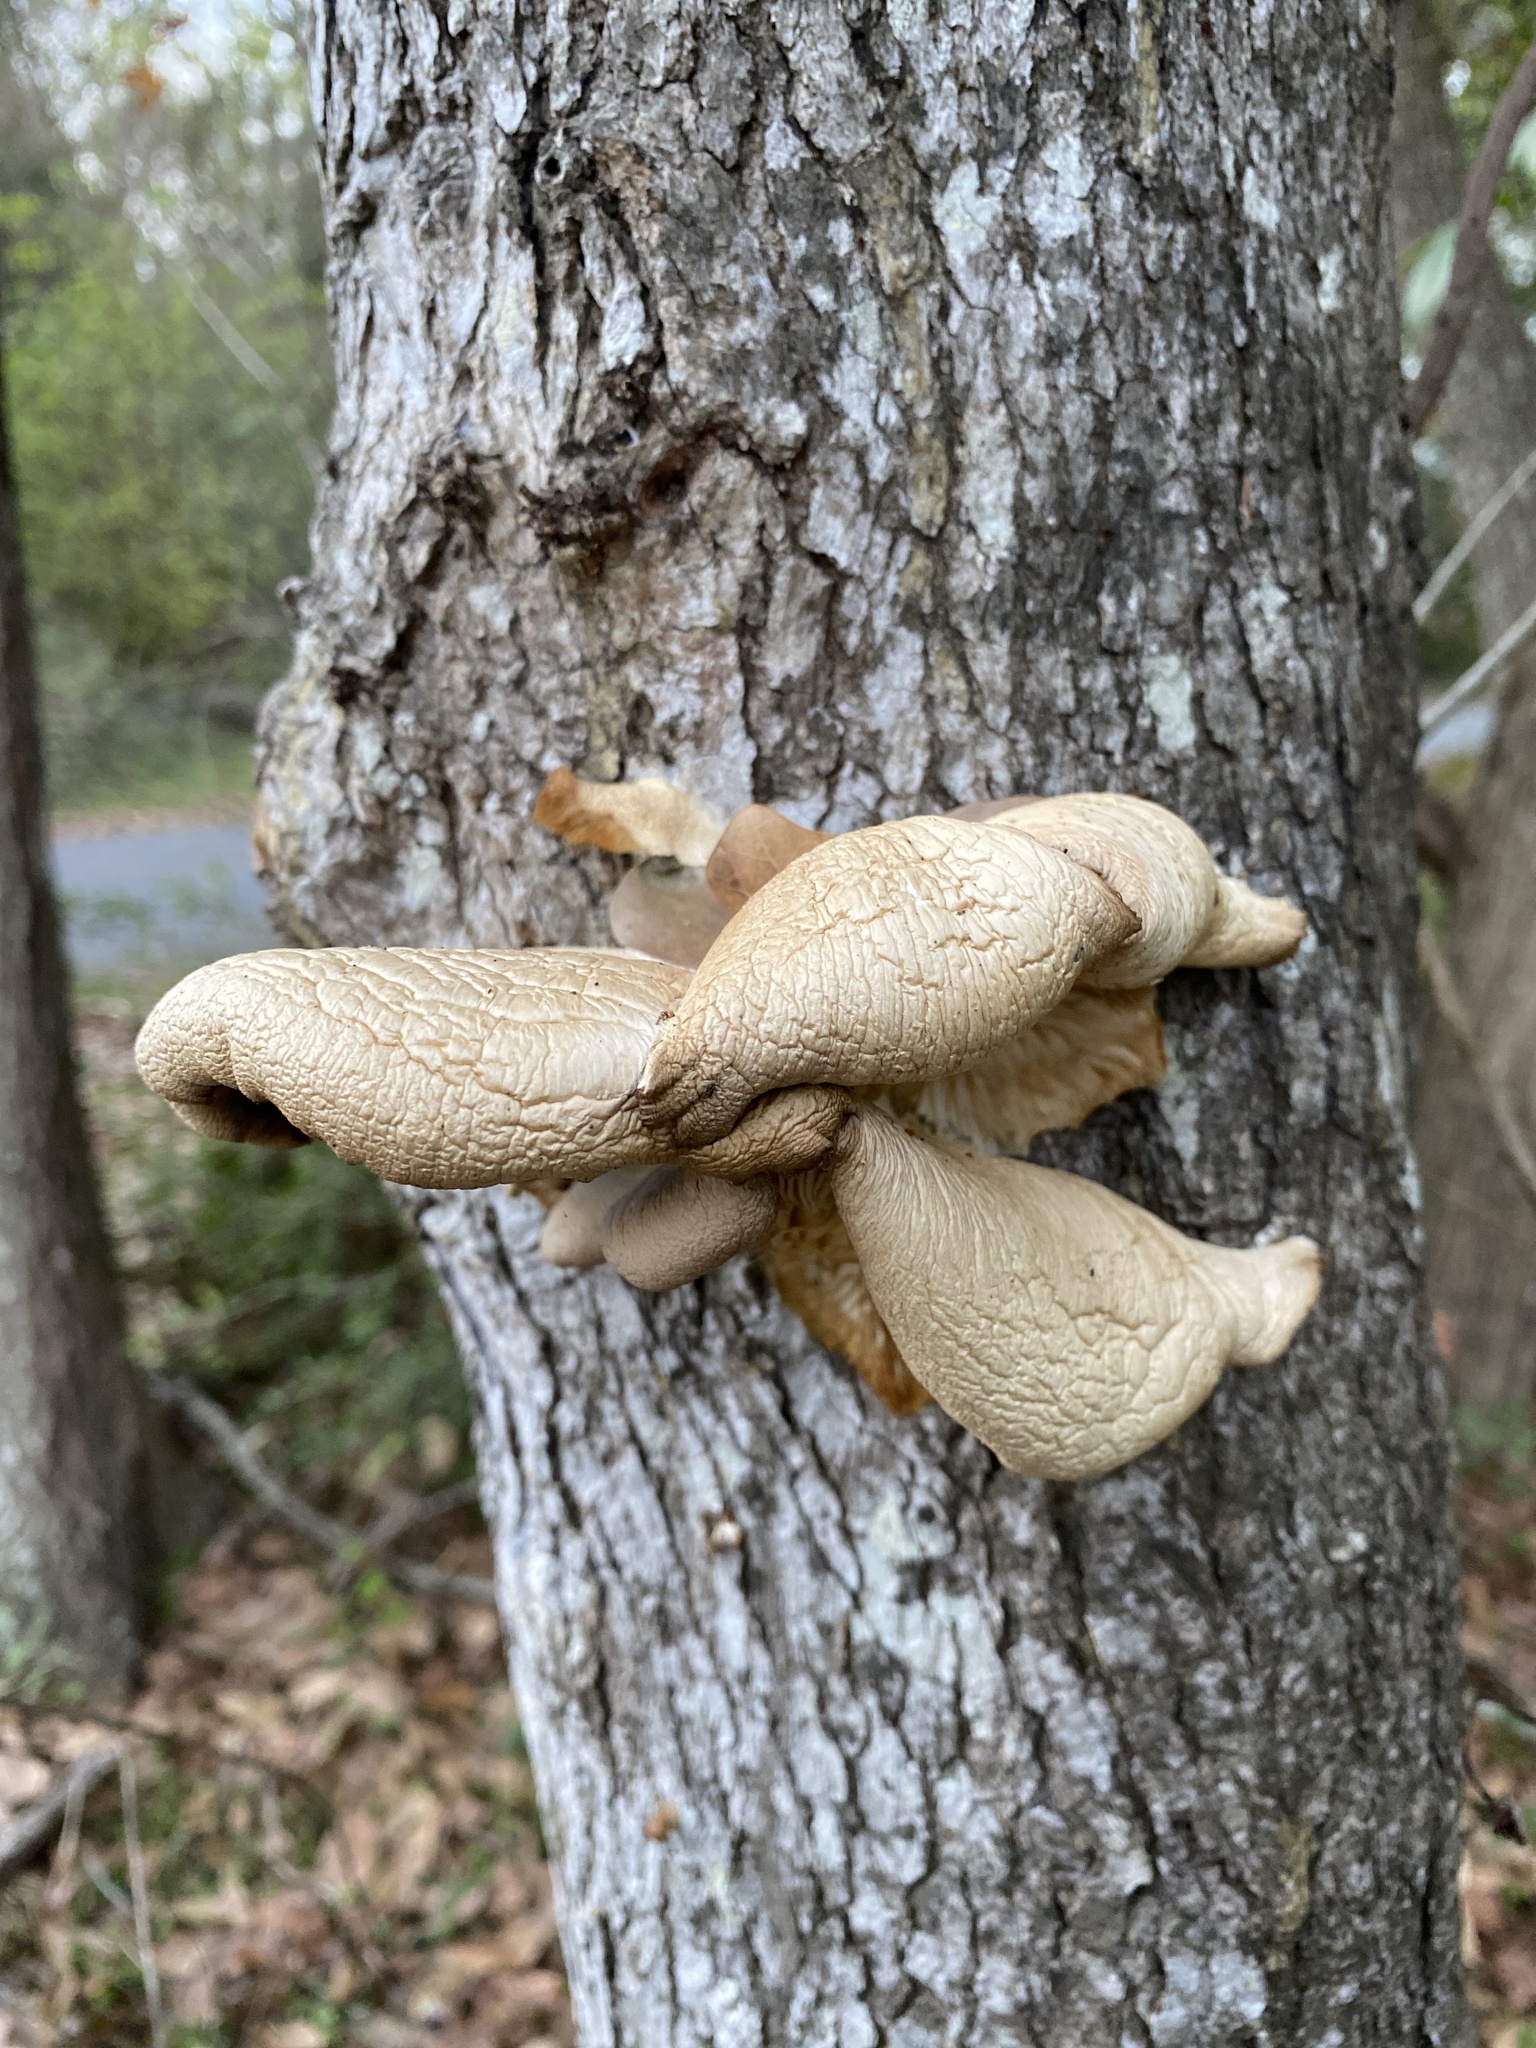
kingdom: Fungi
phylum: Basidiomycota
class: Agaricomycetes
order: Agaricales
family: Pleurotaceae
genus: Pleurotus
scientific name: Pleurotus ostreatus
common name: Oyster mushroom
